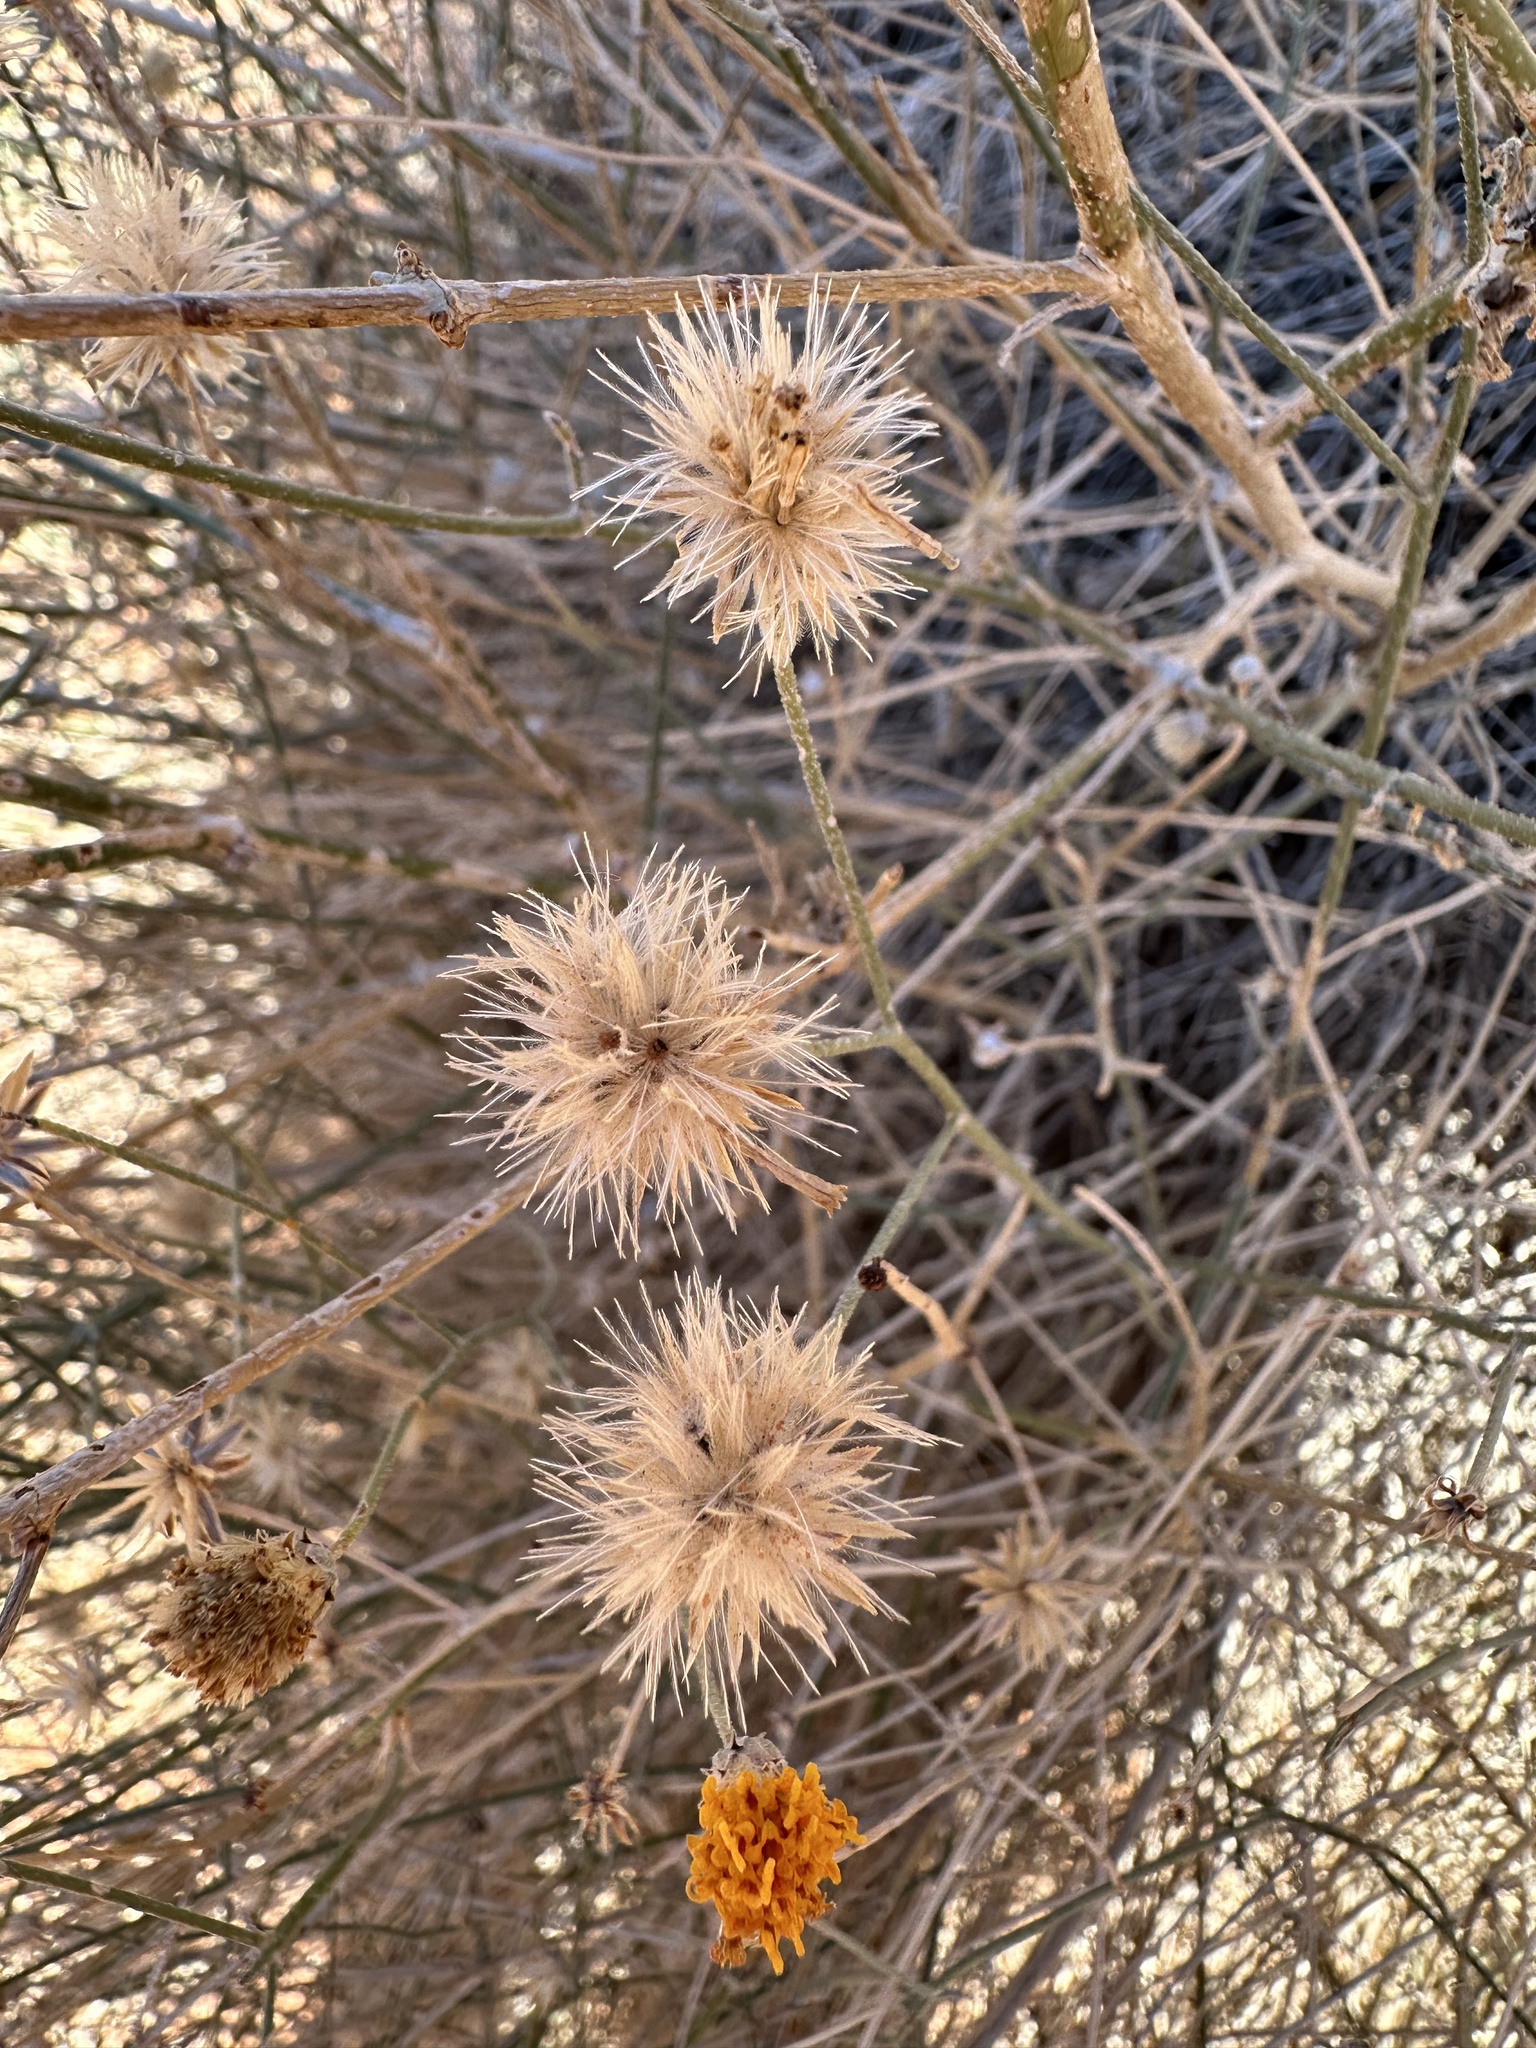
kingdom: Plantae
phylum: Tracheophyta
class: Magnoliopsida
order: Asterales
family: Asteraceae
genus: Bebbia
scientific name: Bebbia juncea
